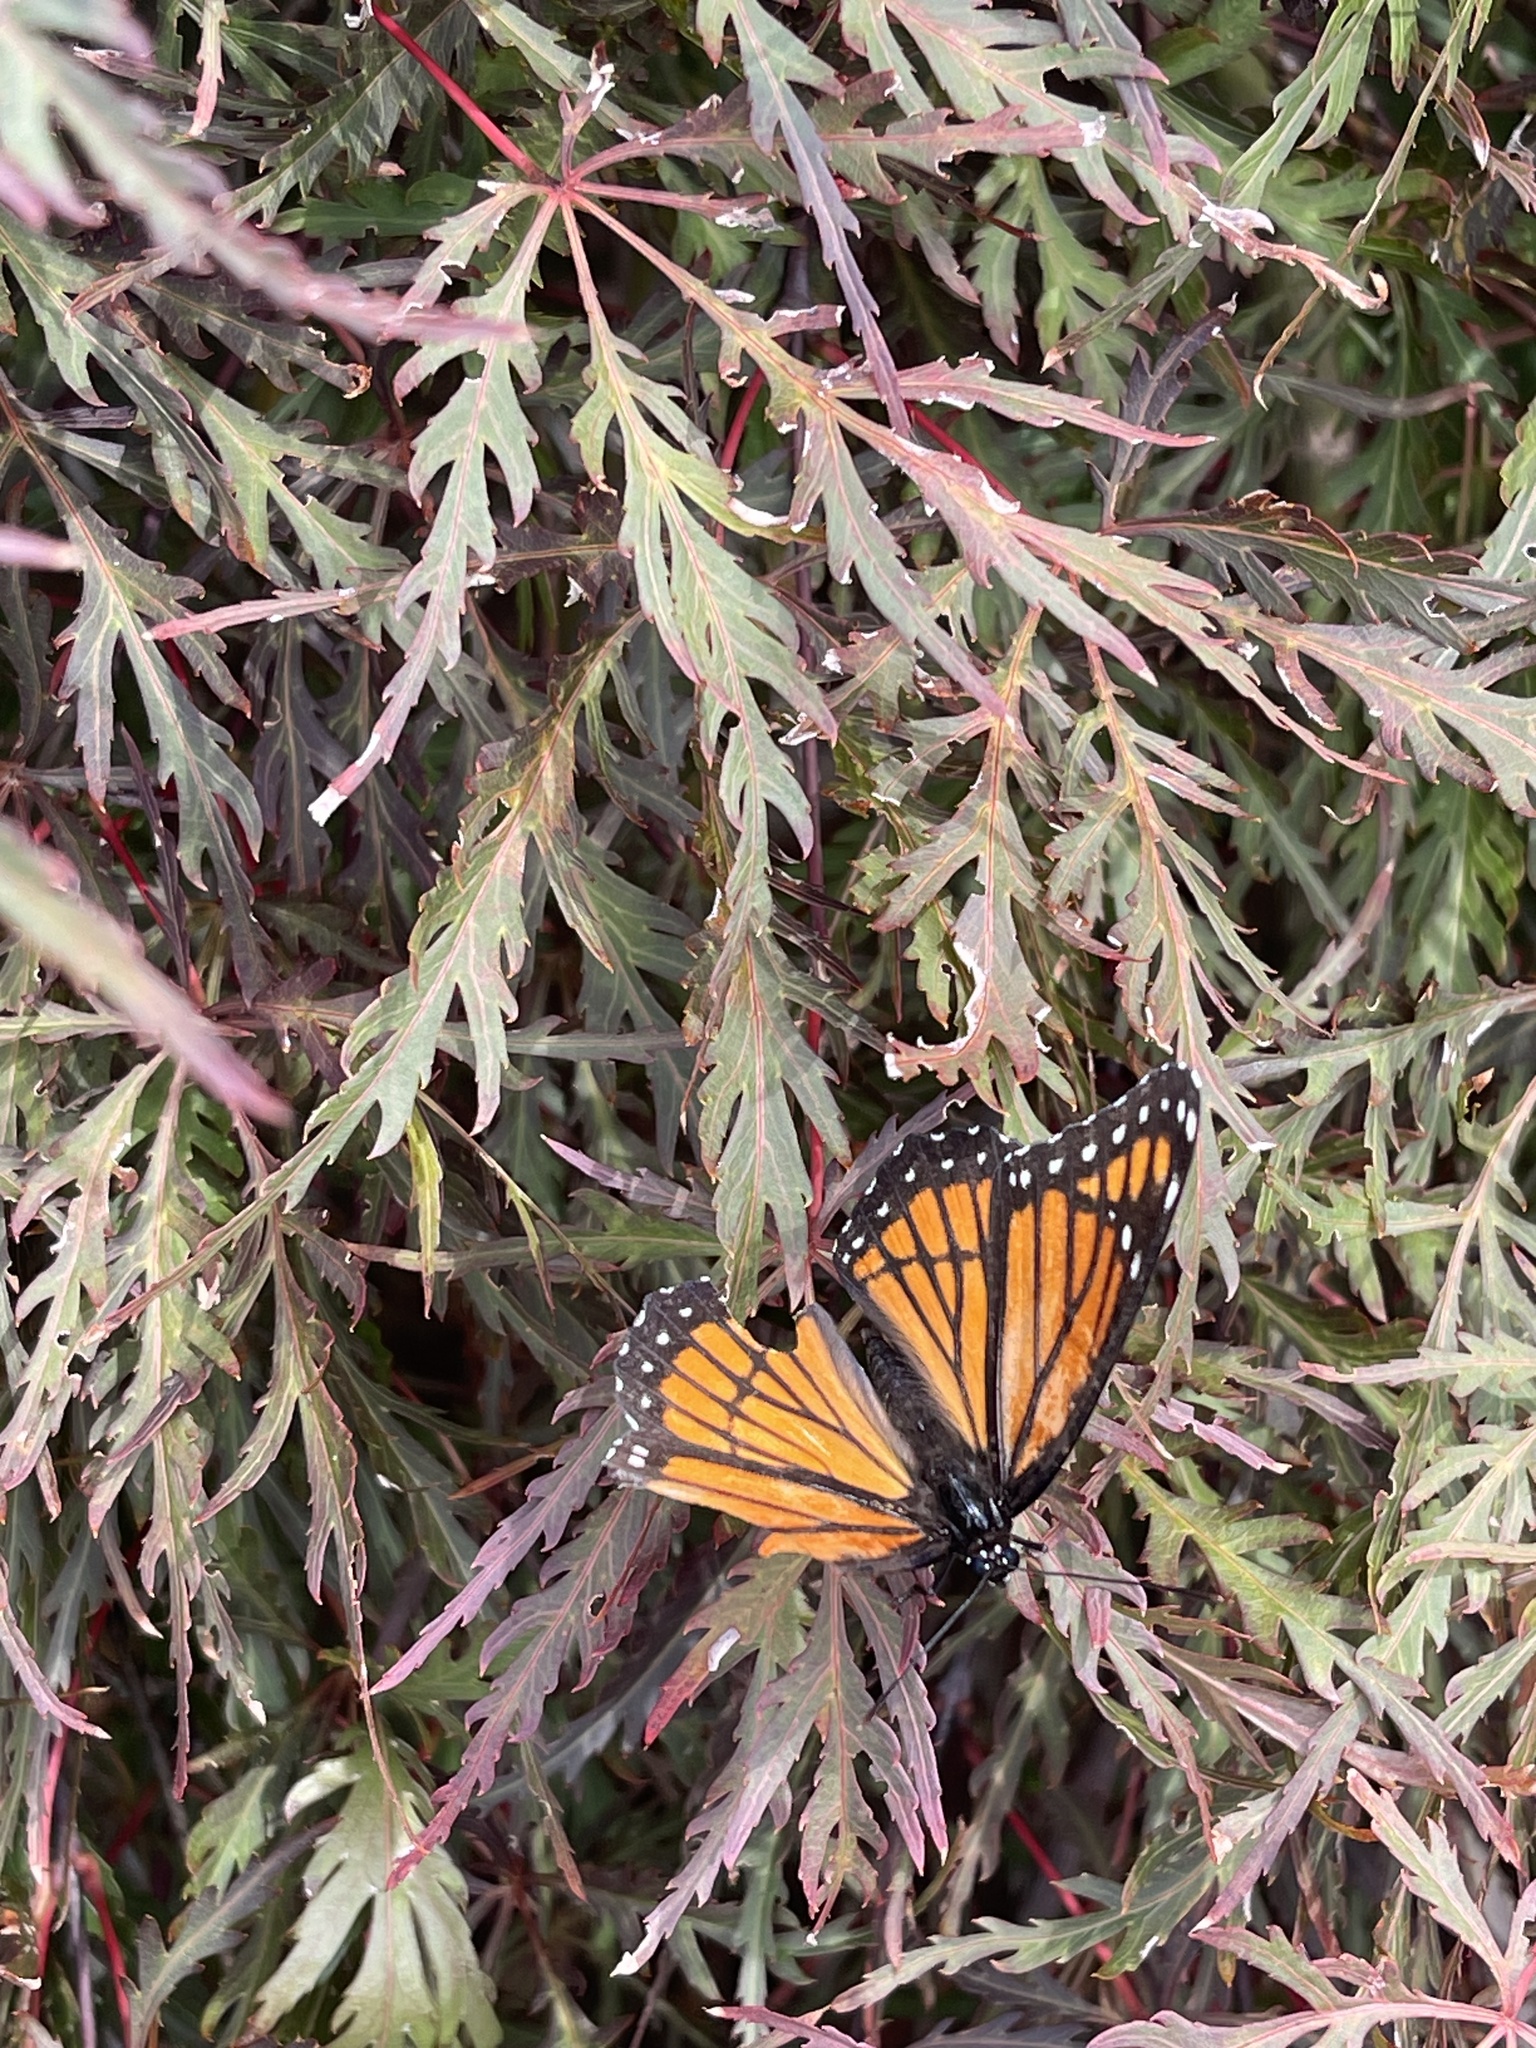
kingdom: Animalia
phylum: Arthropoda
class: Insecta
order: Lepidoptera
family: Nymphalidae
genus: Limenitis
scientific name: Limenitis archippus
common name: Viceroy
